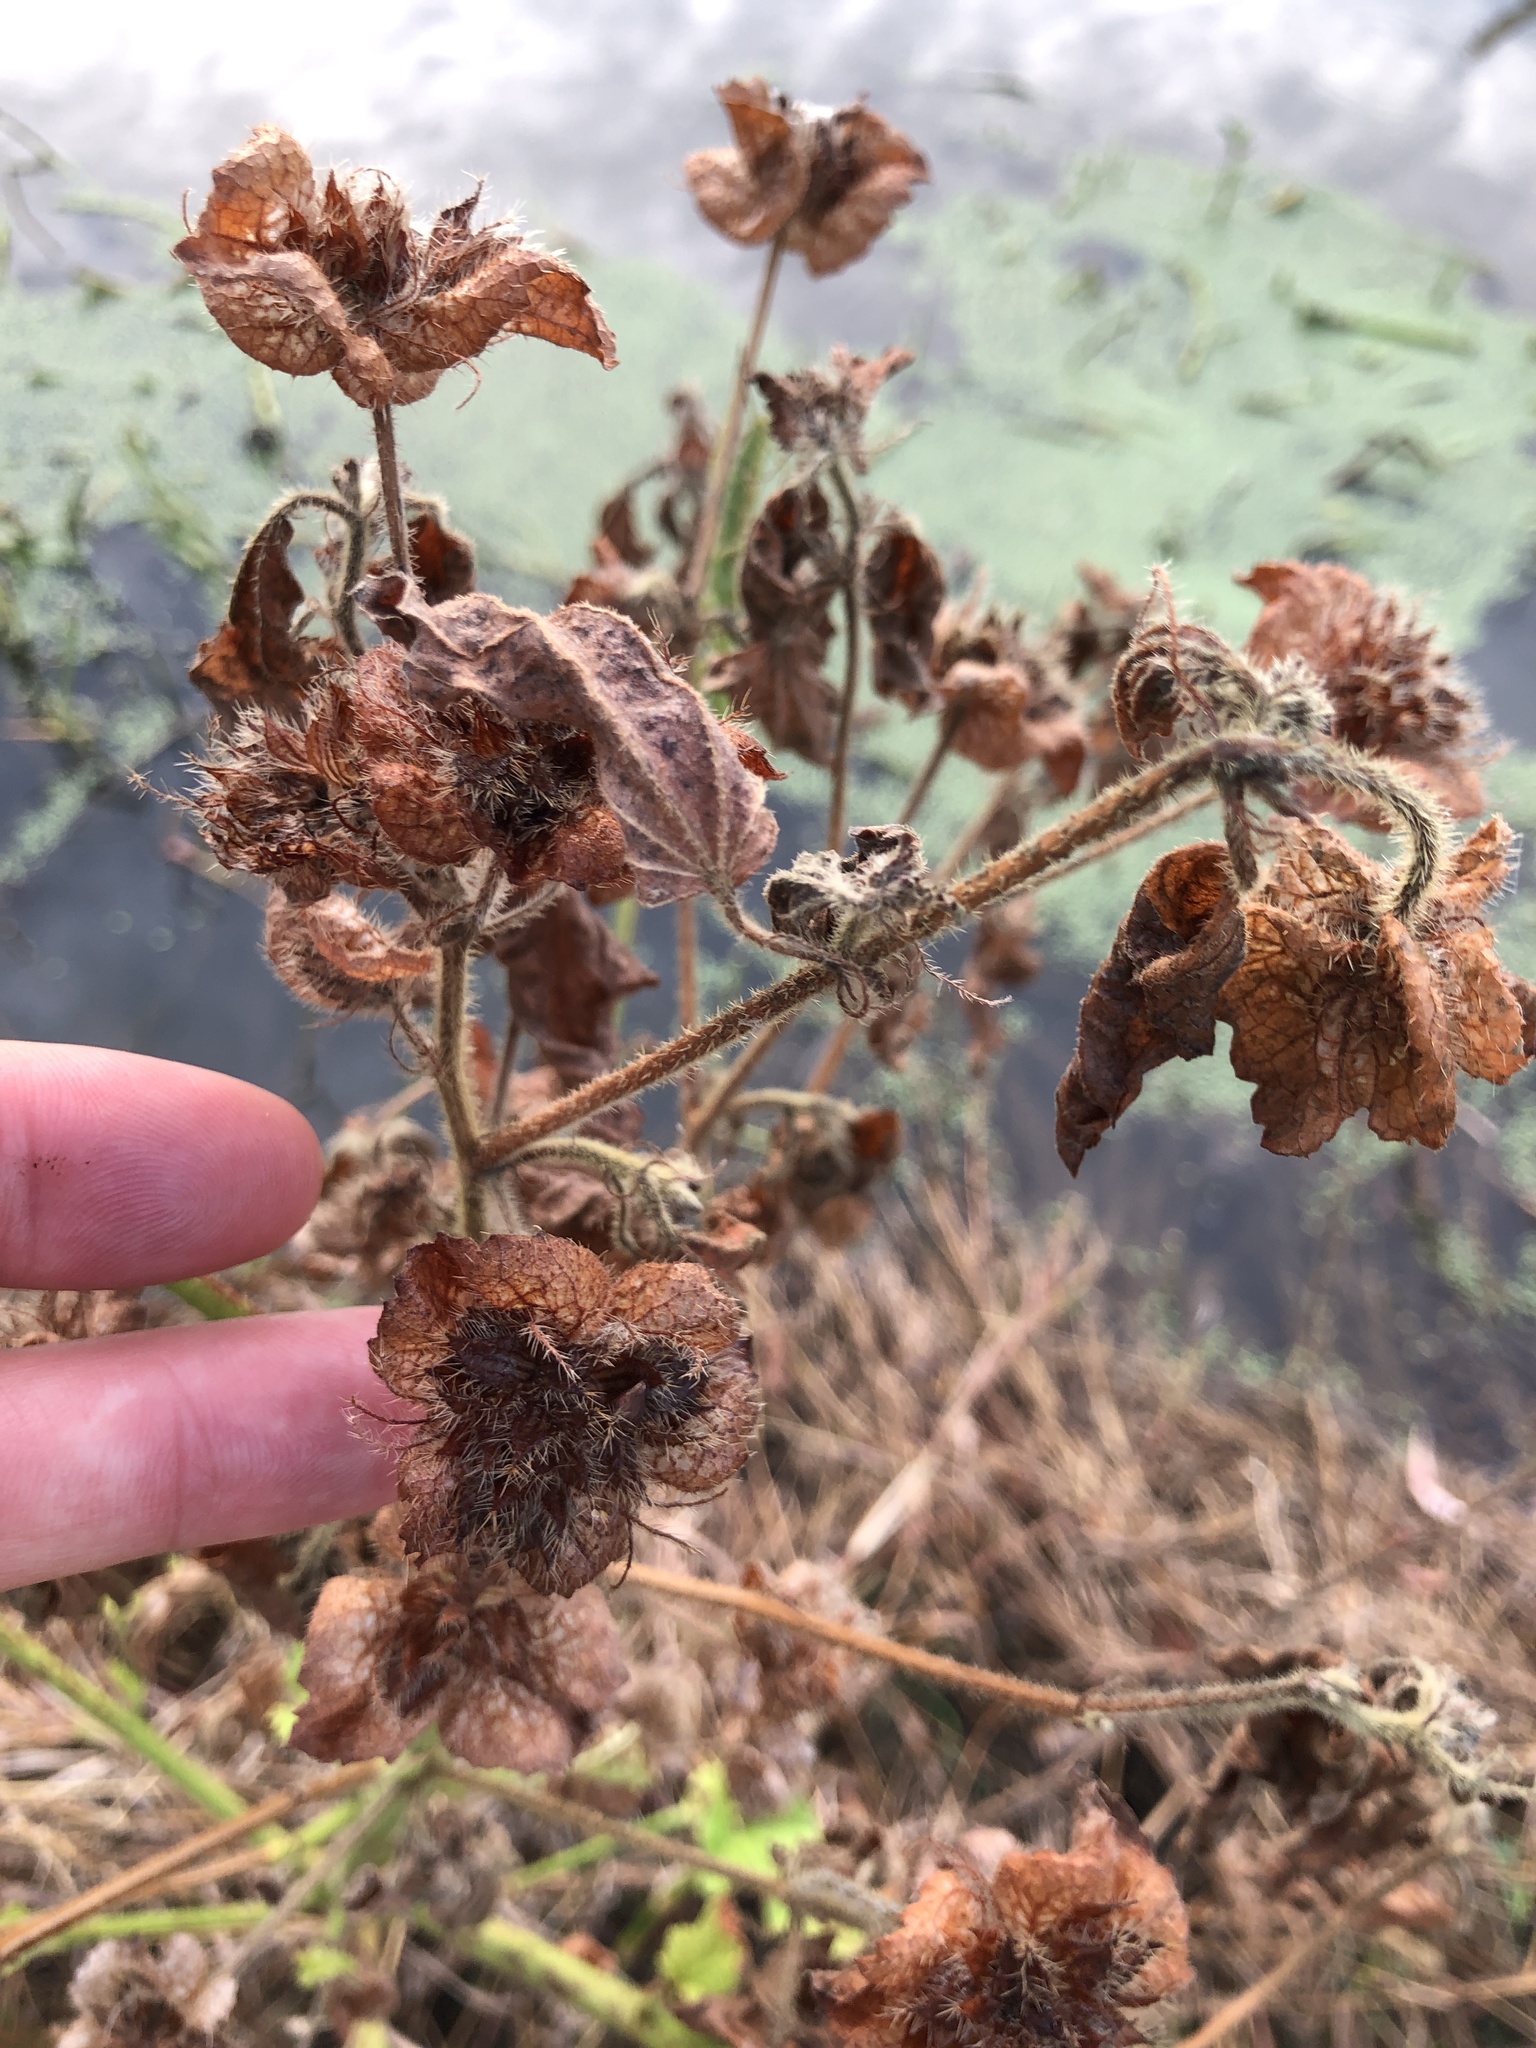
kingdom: Plantae
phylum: Tracheophyta
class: Magnoliopsida
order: Malvales
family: Malvaceae
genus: Malachra
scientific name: Malachra capitata
